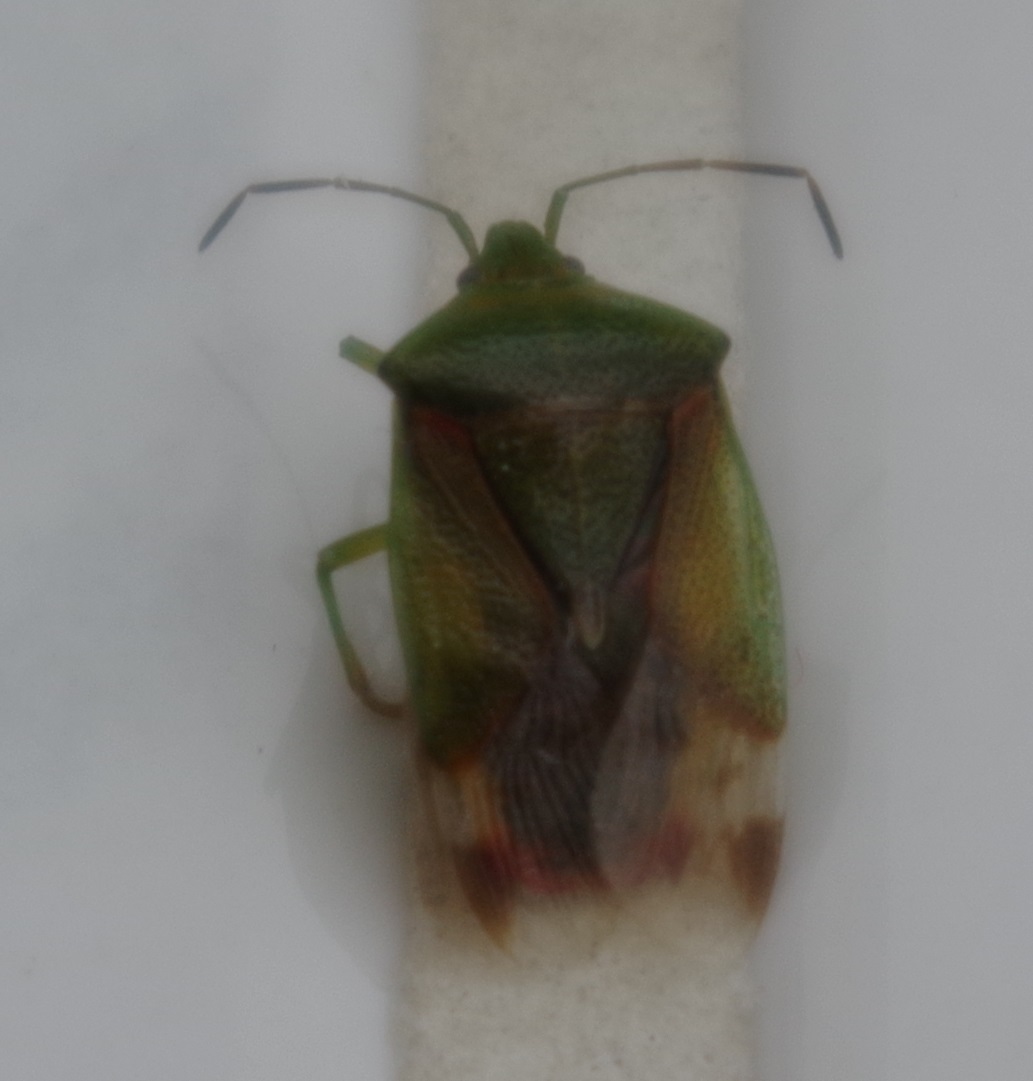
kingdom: Animalia
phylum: Arthropoda
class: Insecta
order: Hemiptera
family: Acanthosomatidae
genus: Elasmostethus
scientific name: Elasmostethus minor
